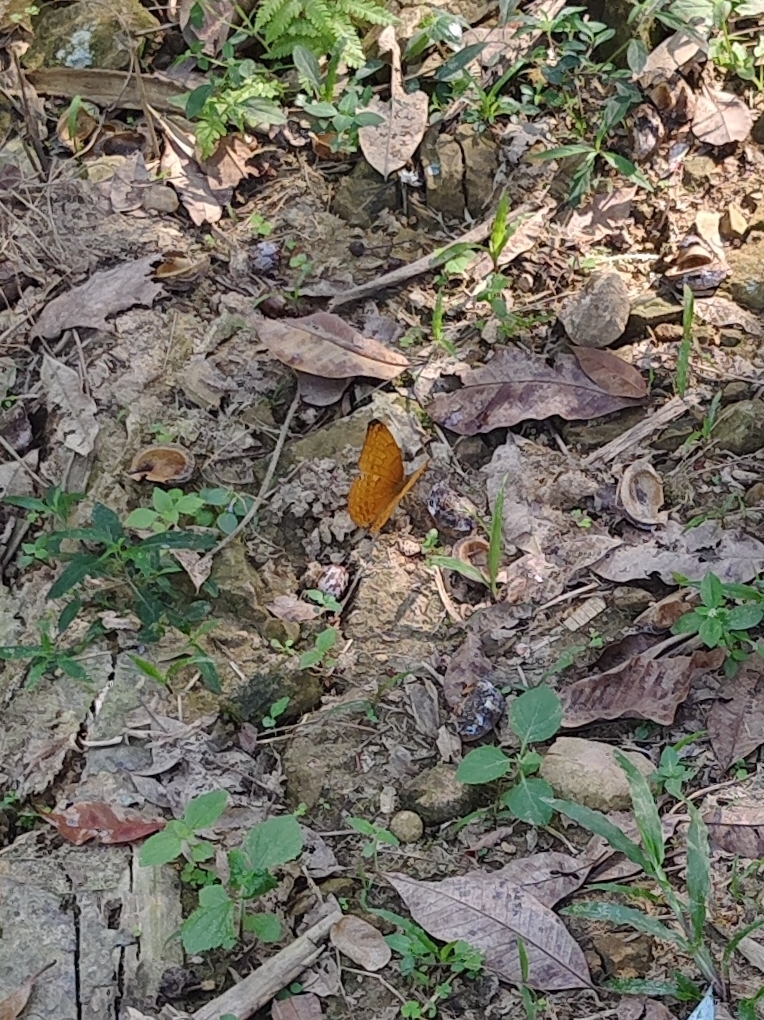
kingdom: Animalia
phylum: Arthropoda
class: Insecta
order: Lepidoptera
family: Nymphalidae
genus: Cirrochroa
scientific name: Cirrochroa aoris
